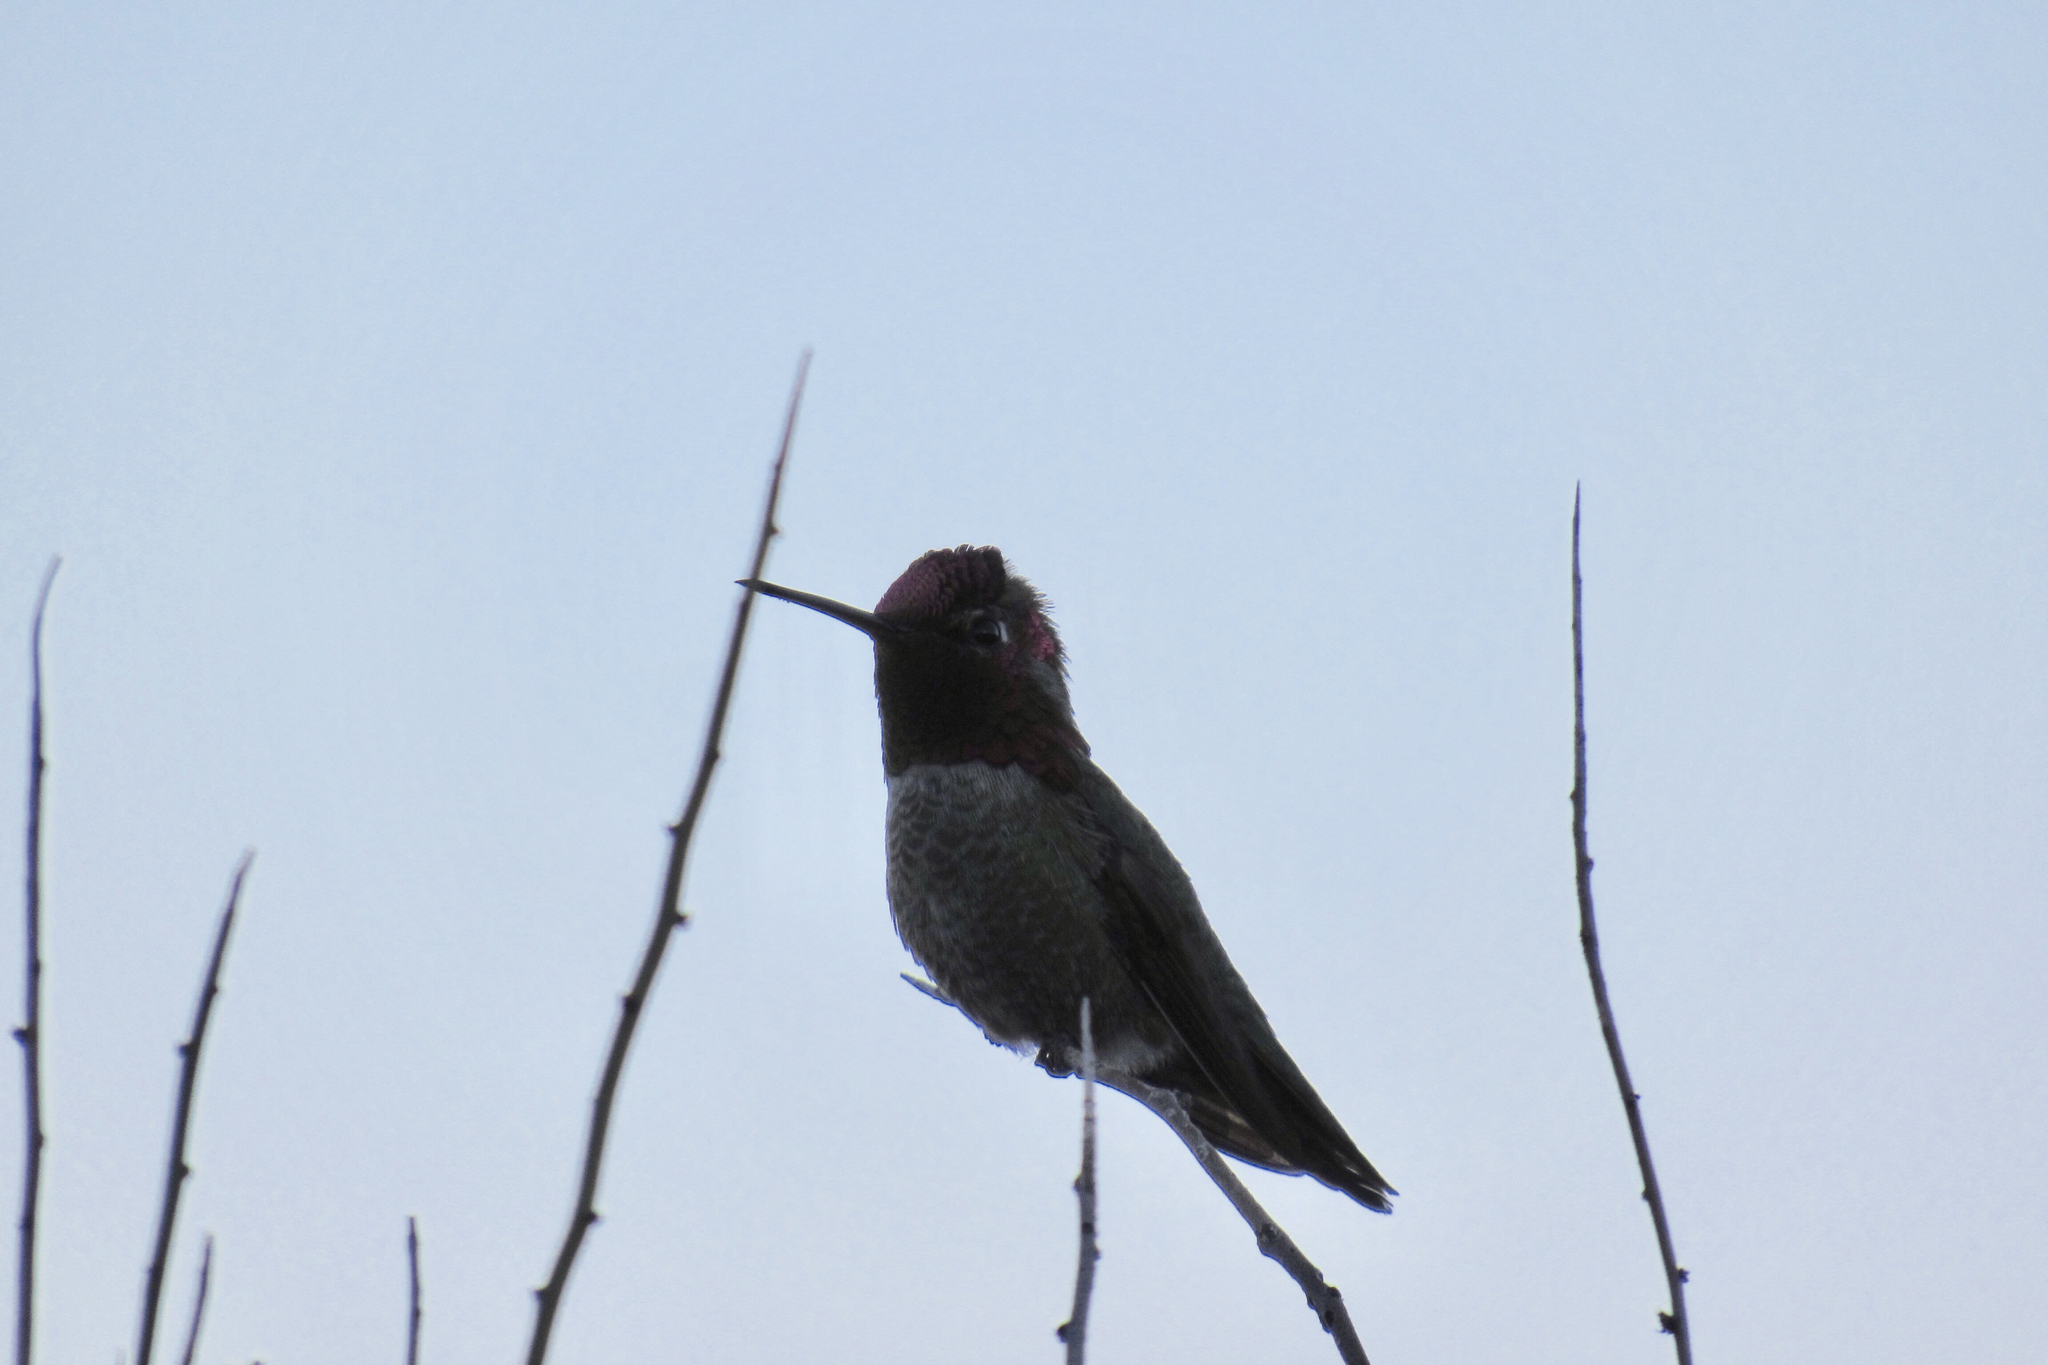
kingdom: Animalia
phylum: Chordata
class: Aves
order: Apodiformes
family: Trochilidae
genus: Calypte
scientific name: Calypte anna
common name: Anna's hummingbird
